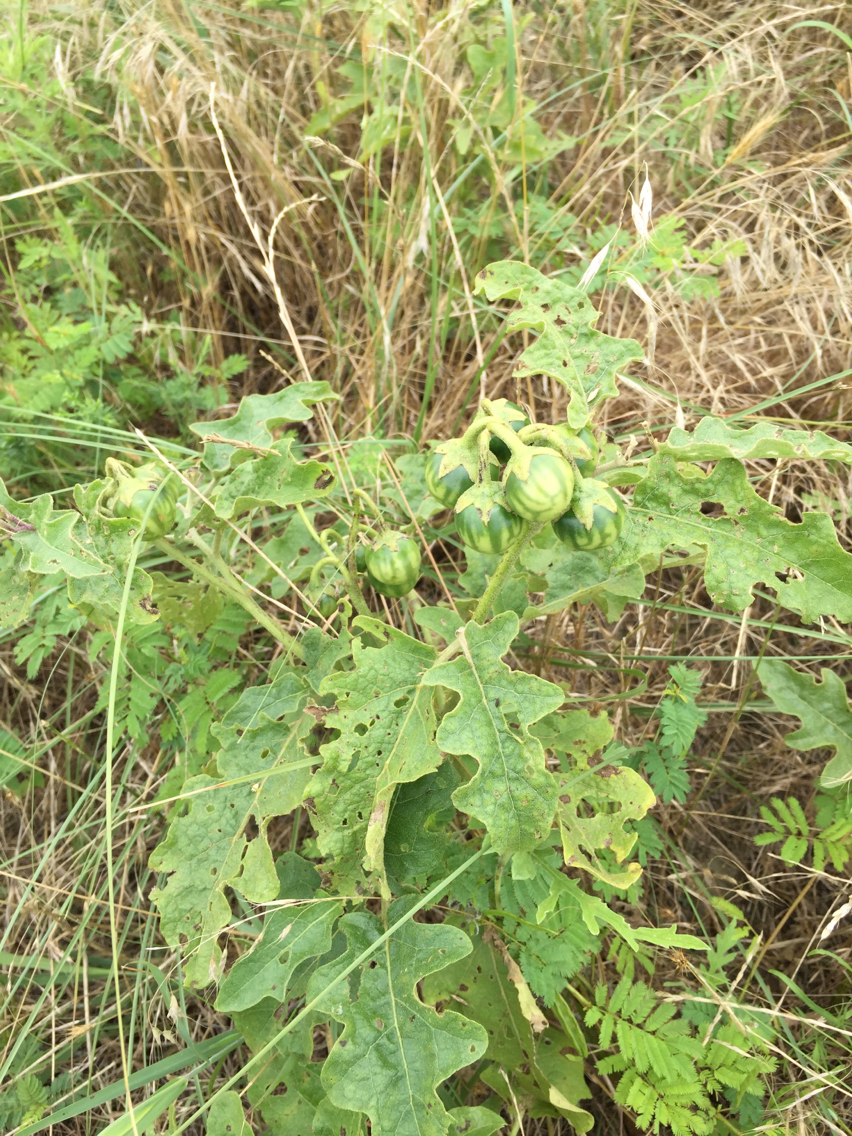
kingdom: Plantae
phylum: Tracheophyta
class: Magnoliopsida
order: Solanales
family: Solanaceae
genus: Solanum
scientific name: Solanum dimidiatum
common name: Carolina horse-nettle
